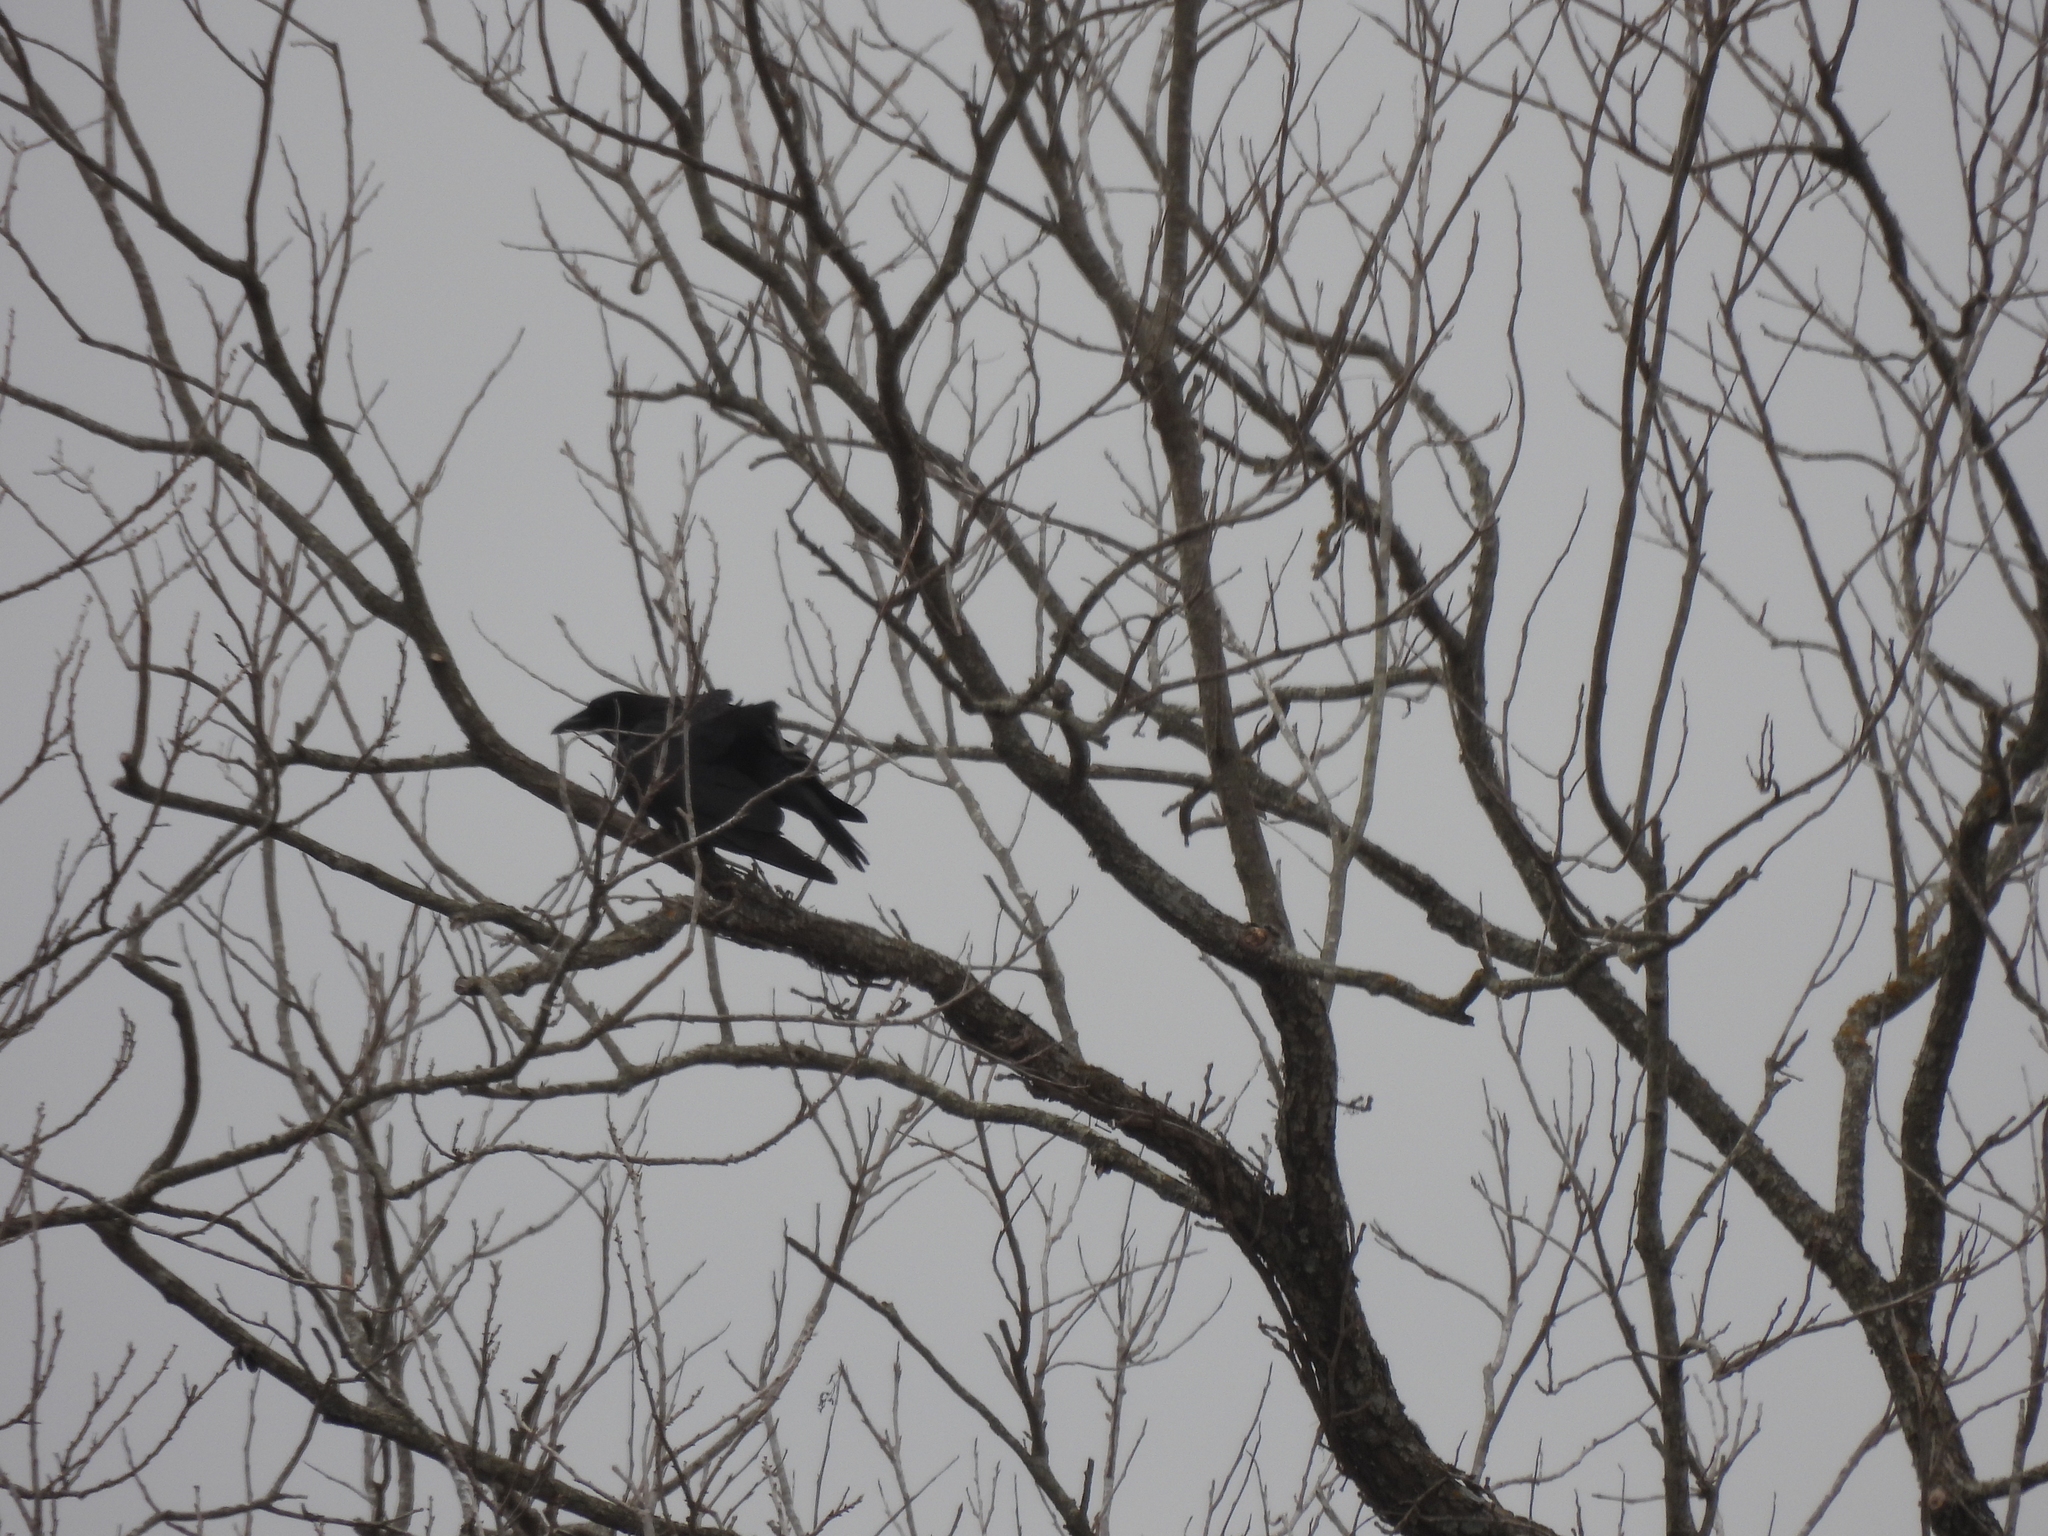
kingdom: Animalia
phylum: Chordata
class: Aves
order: Passeriformes
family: Corvidae
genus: Corvus
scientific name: Corvus brachyrhynchos
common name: American crow
